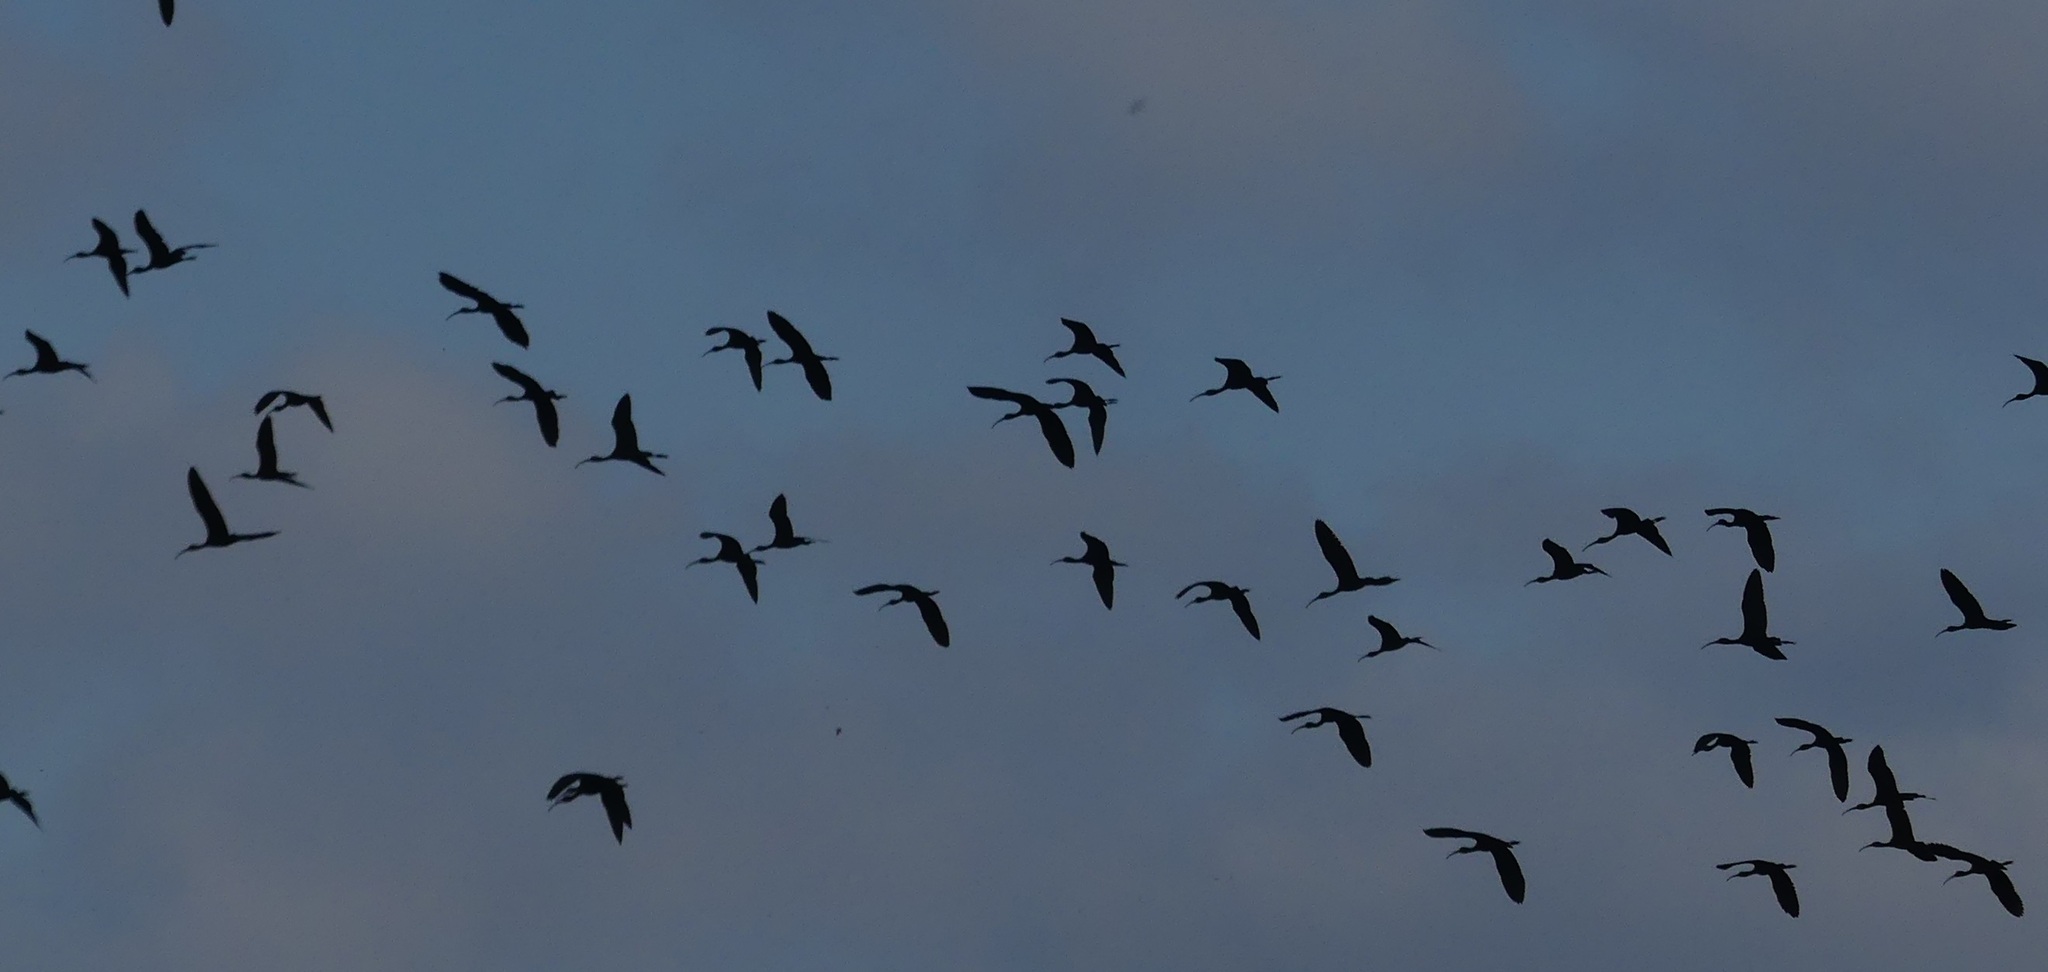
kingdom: Animalia
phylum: Chordata
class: Aves
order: Pelecaniformes
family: Threskiornithidae
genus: Plegadis
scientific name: Plegadis falcinellus
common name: Glossy ibis
